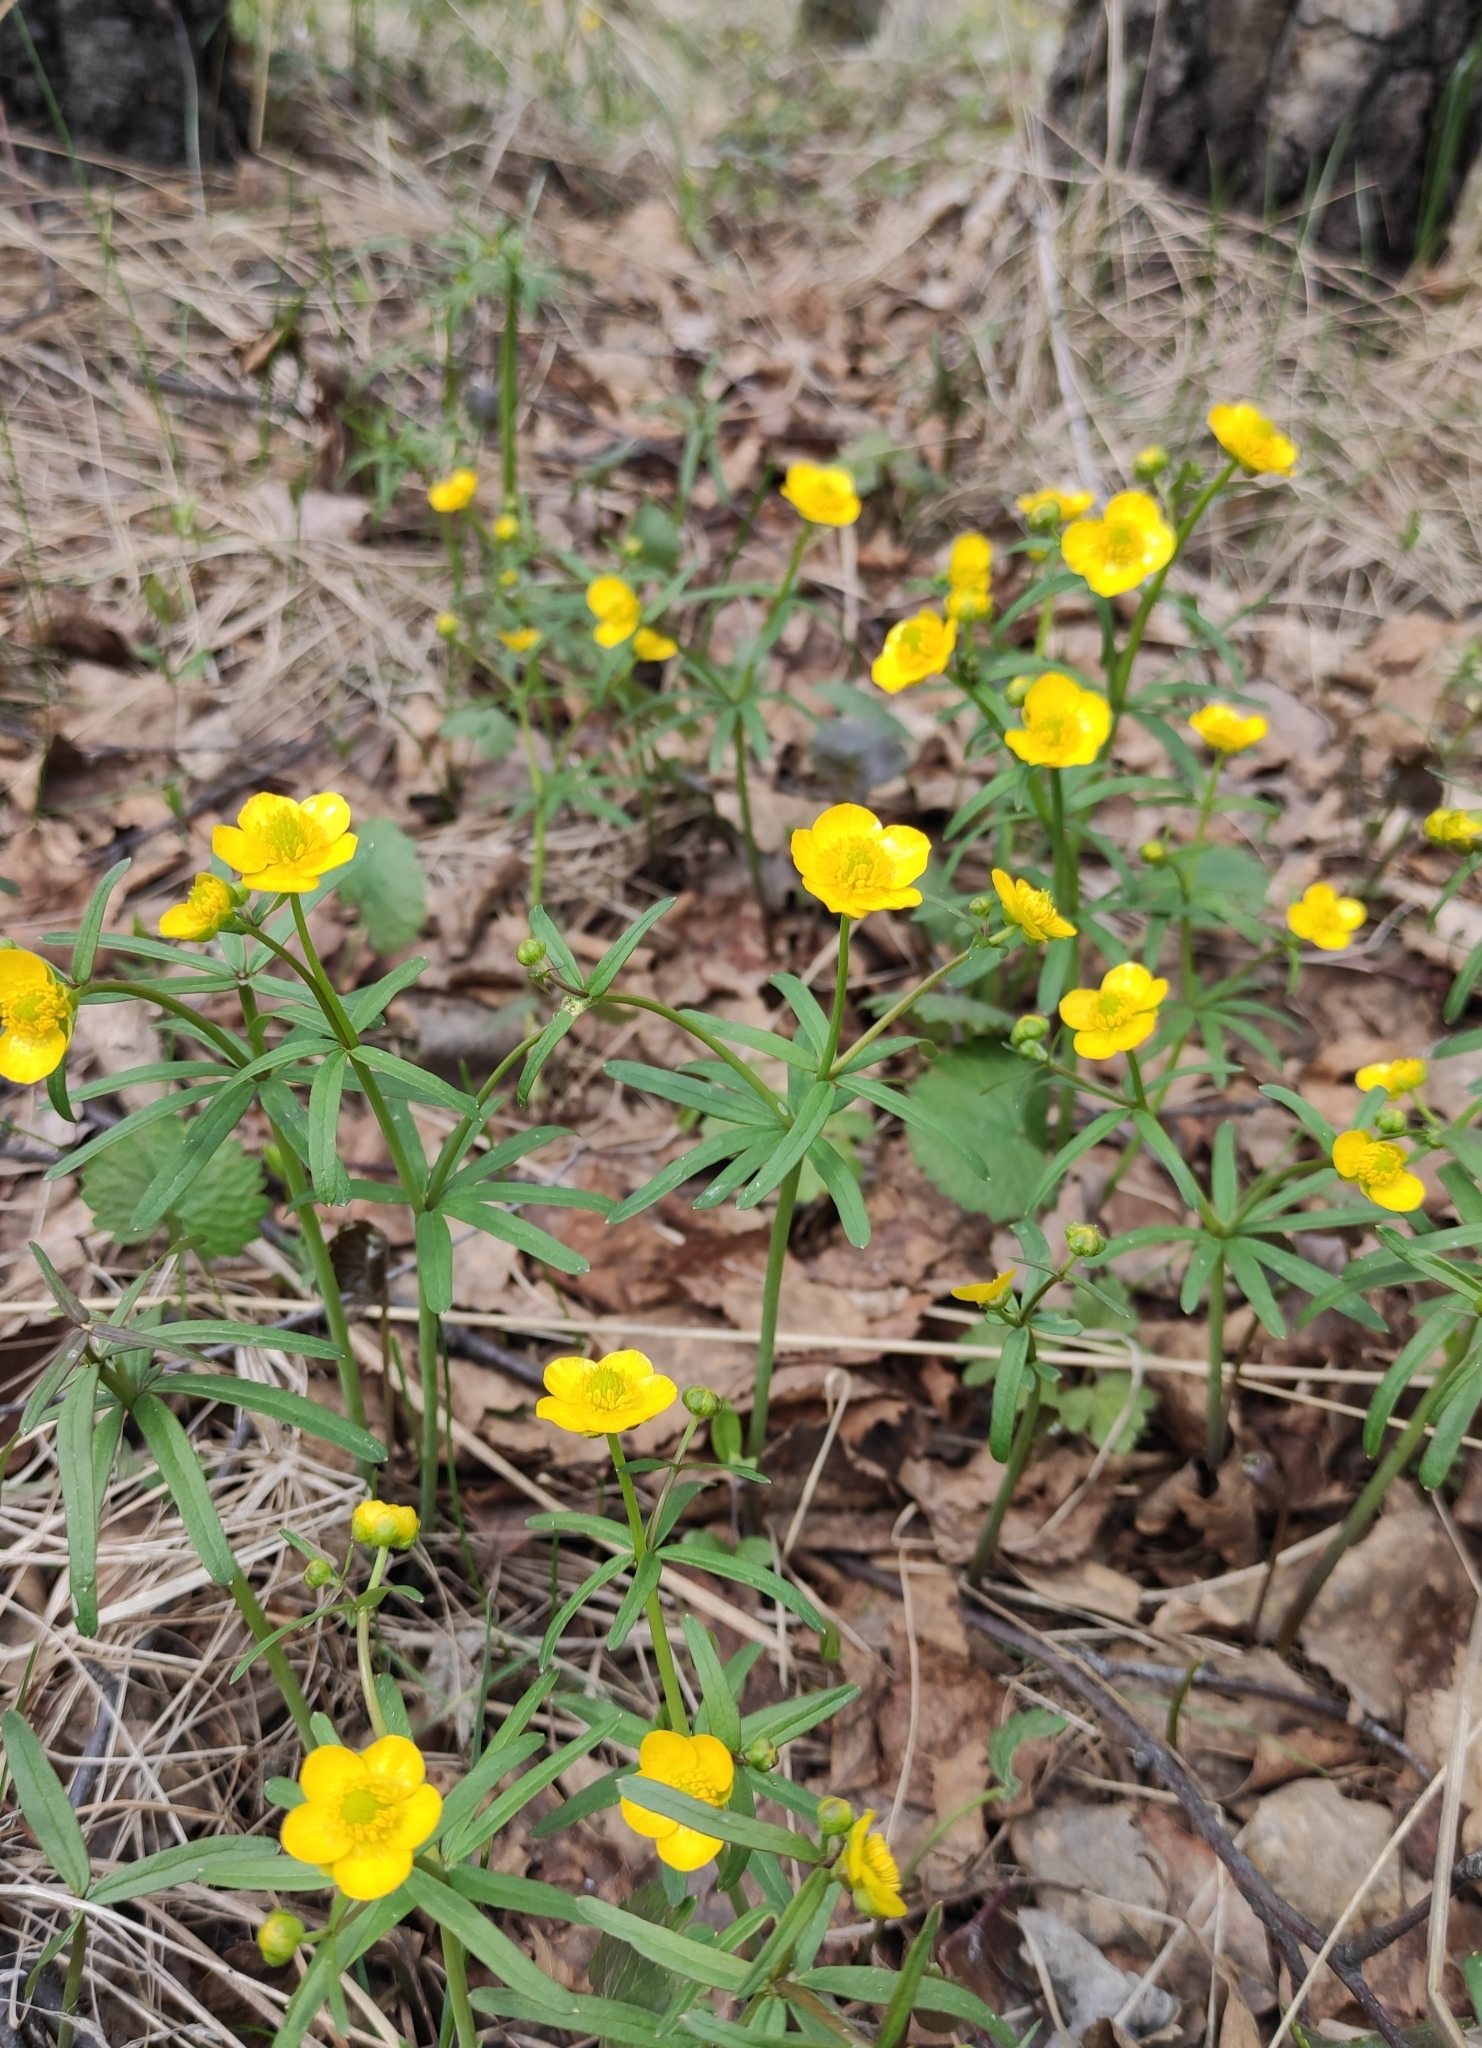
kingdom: Plantae
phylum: Tracheophyta
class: Magnoliopsida
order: Ranunculales
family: Ranunculaceae
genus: Ranunculus
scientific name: Ranunculus monophyllus
